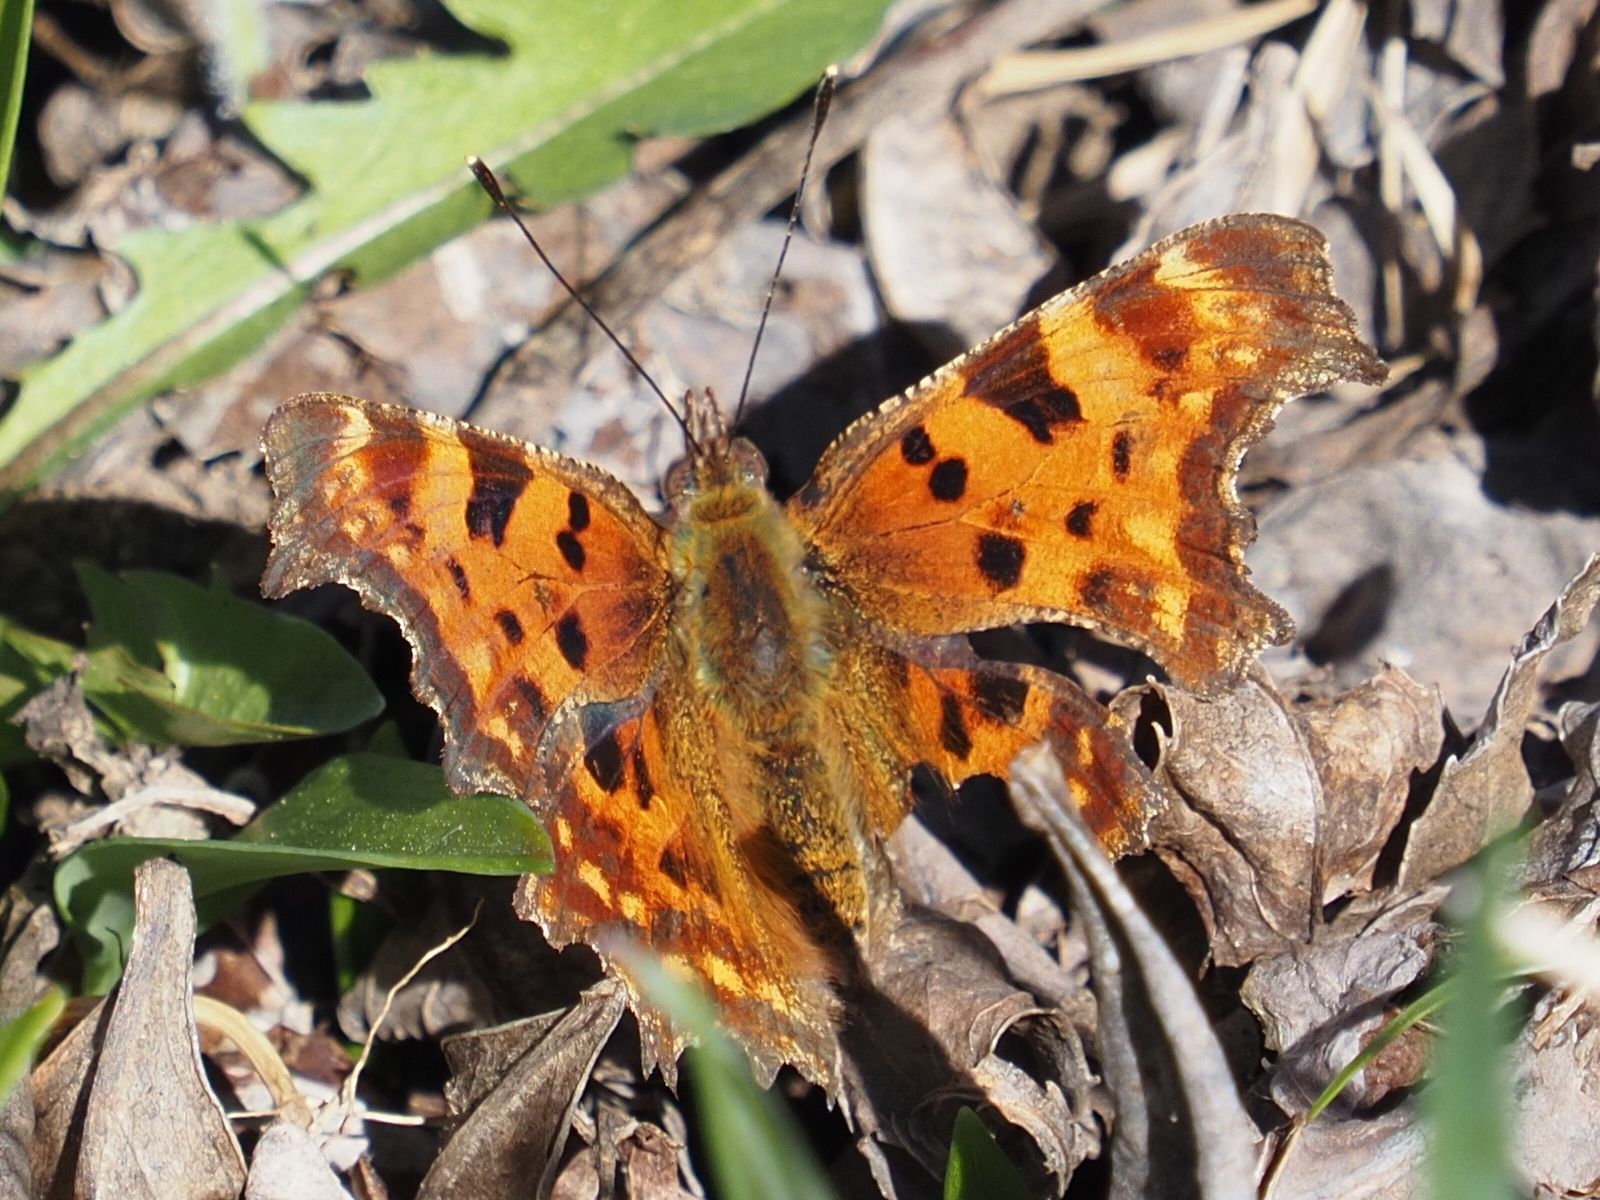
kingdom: Animalia
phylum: Arthropoda
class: Insecta
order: Lepidoptera
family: Nymphalidae
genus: Polygonia
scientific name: Polygonia c-album
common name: Comma
